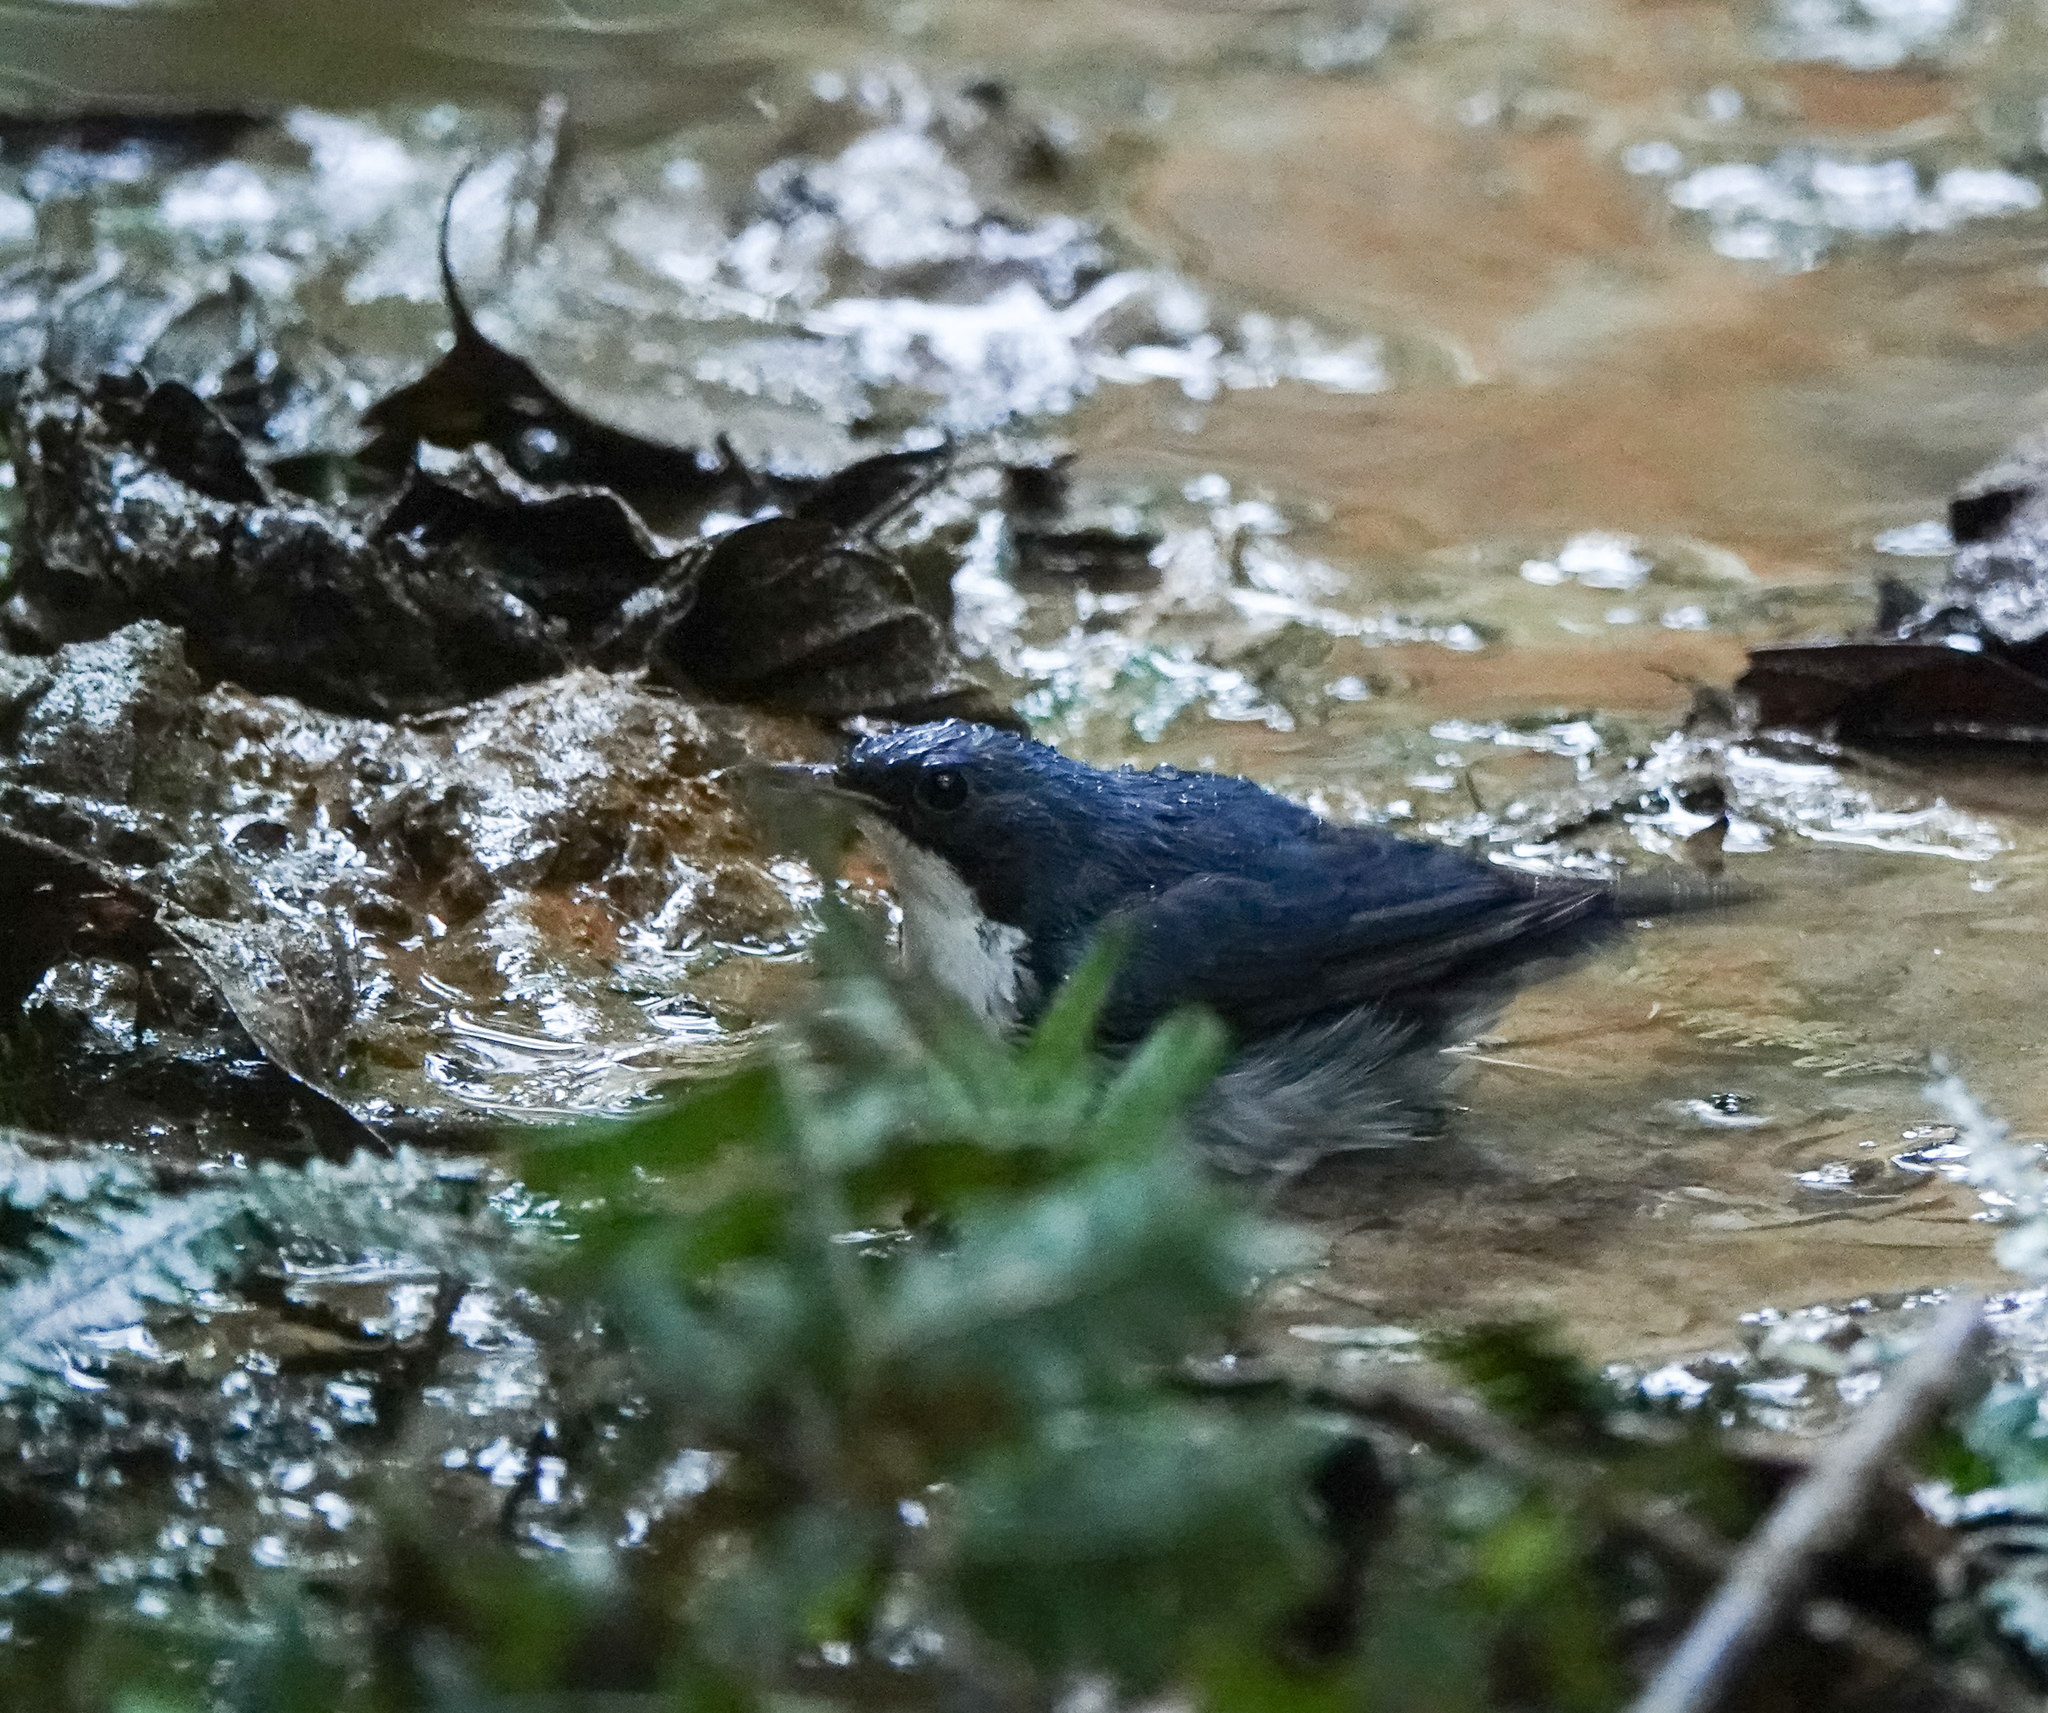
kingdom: Animalia
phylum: Chordata
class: Aves
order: Passeriformes
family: Muscicapidae
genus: Luscinia
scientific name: Luscinia cyane
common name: Siberian blue robin
